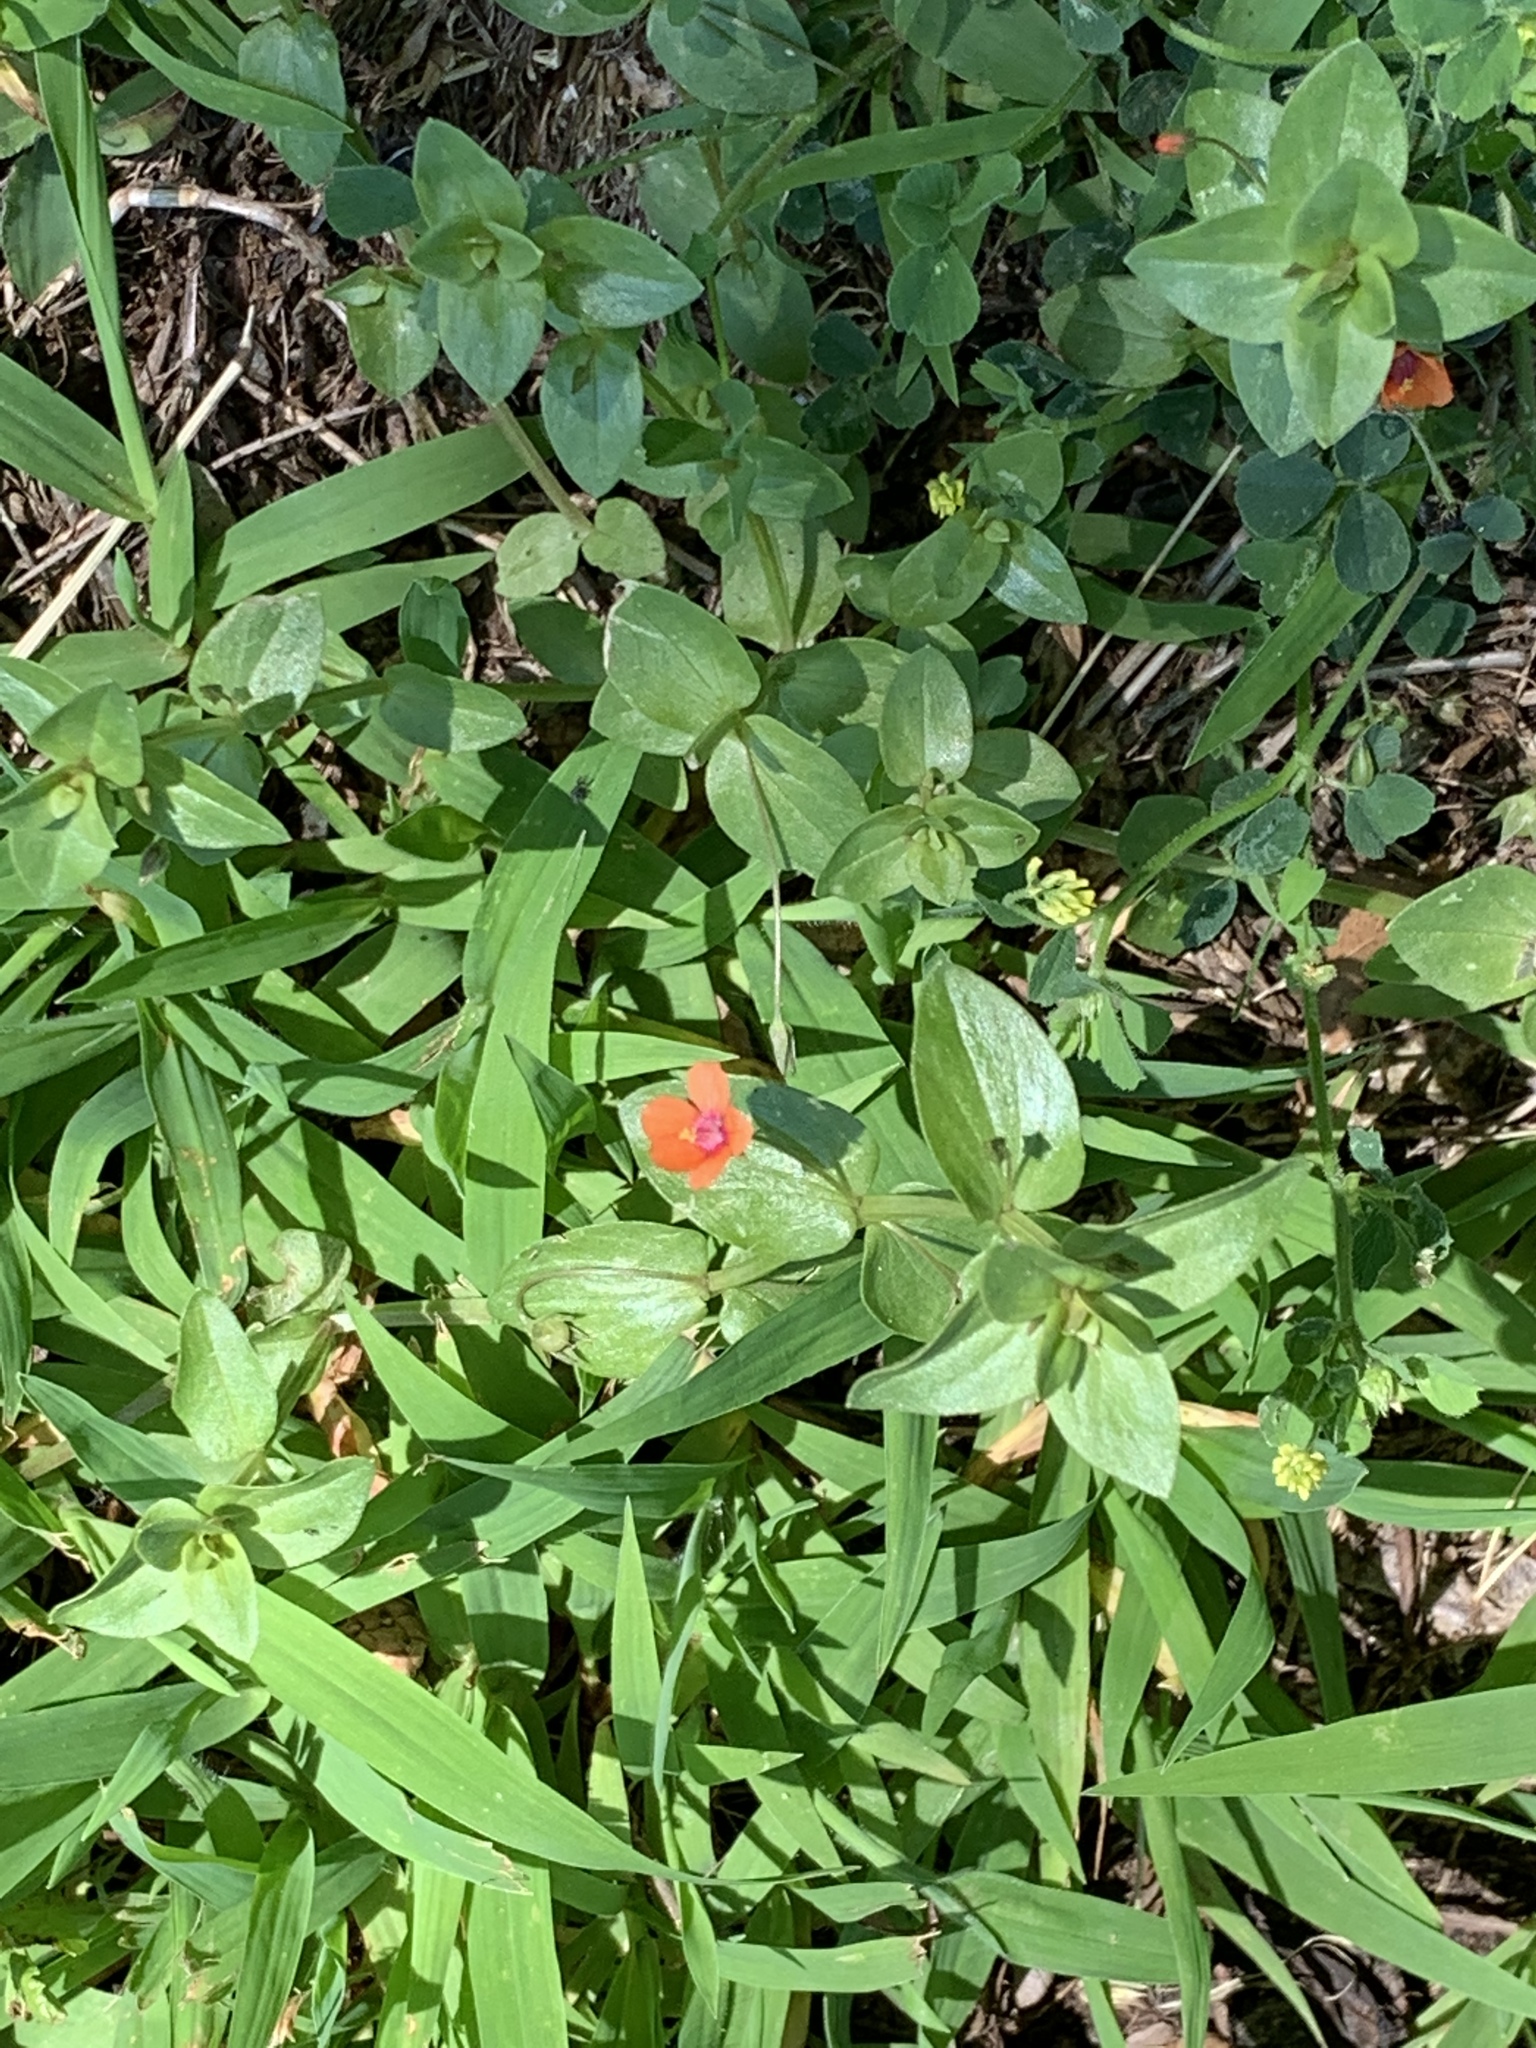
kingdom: Plantae
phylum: Tracheophyta
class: Magnoliopsida
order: Ericales
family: Primulaceae
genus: Lysimachia
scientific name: Lysimachia arvensis
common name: Scarlet pimpernel
